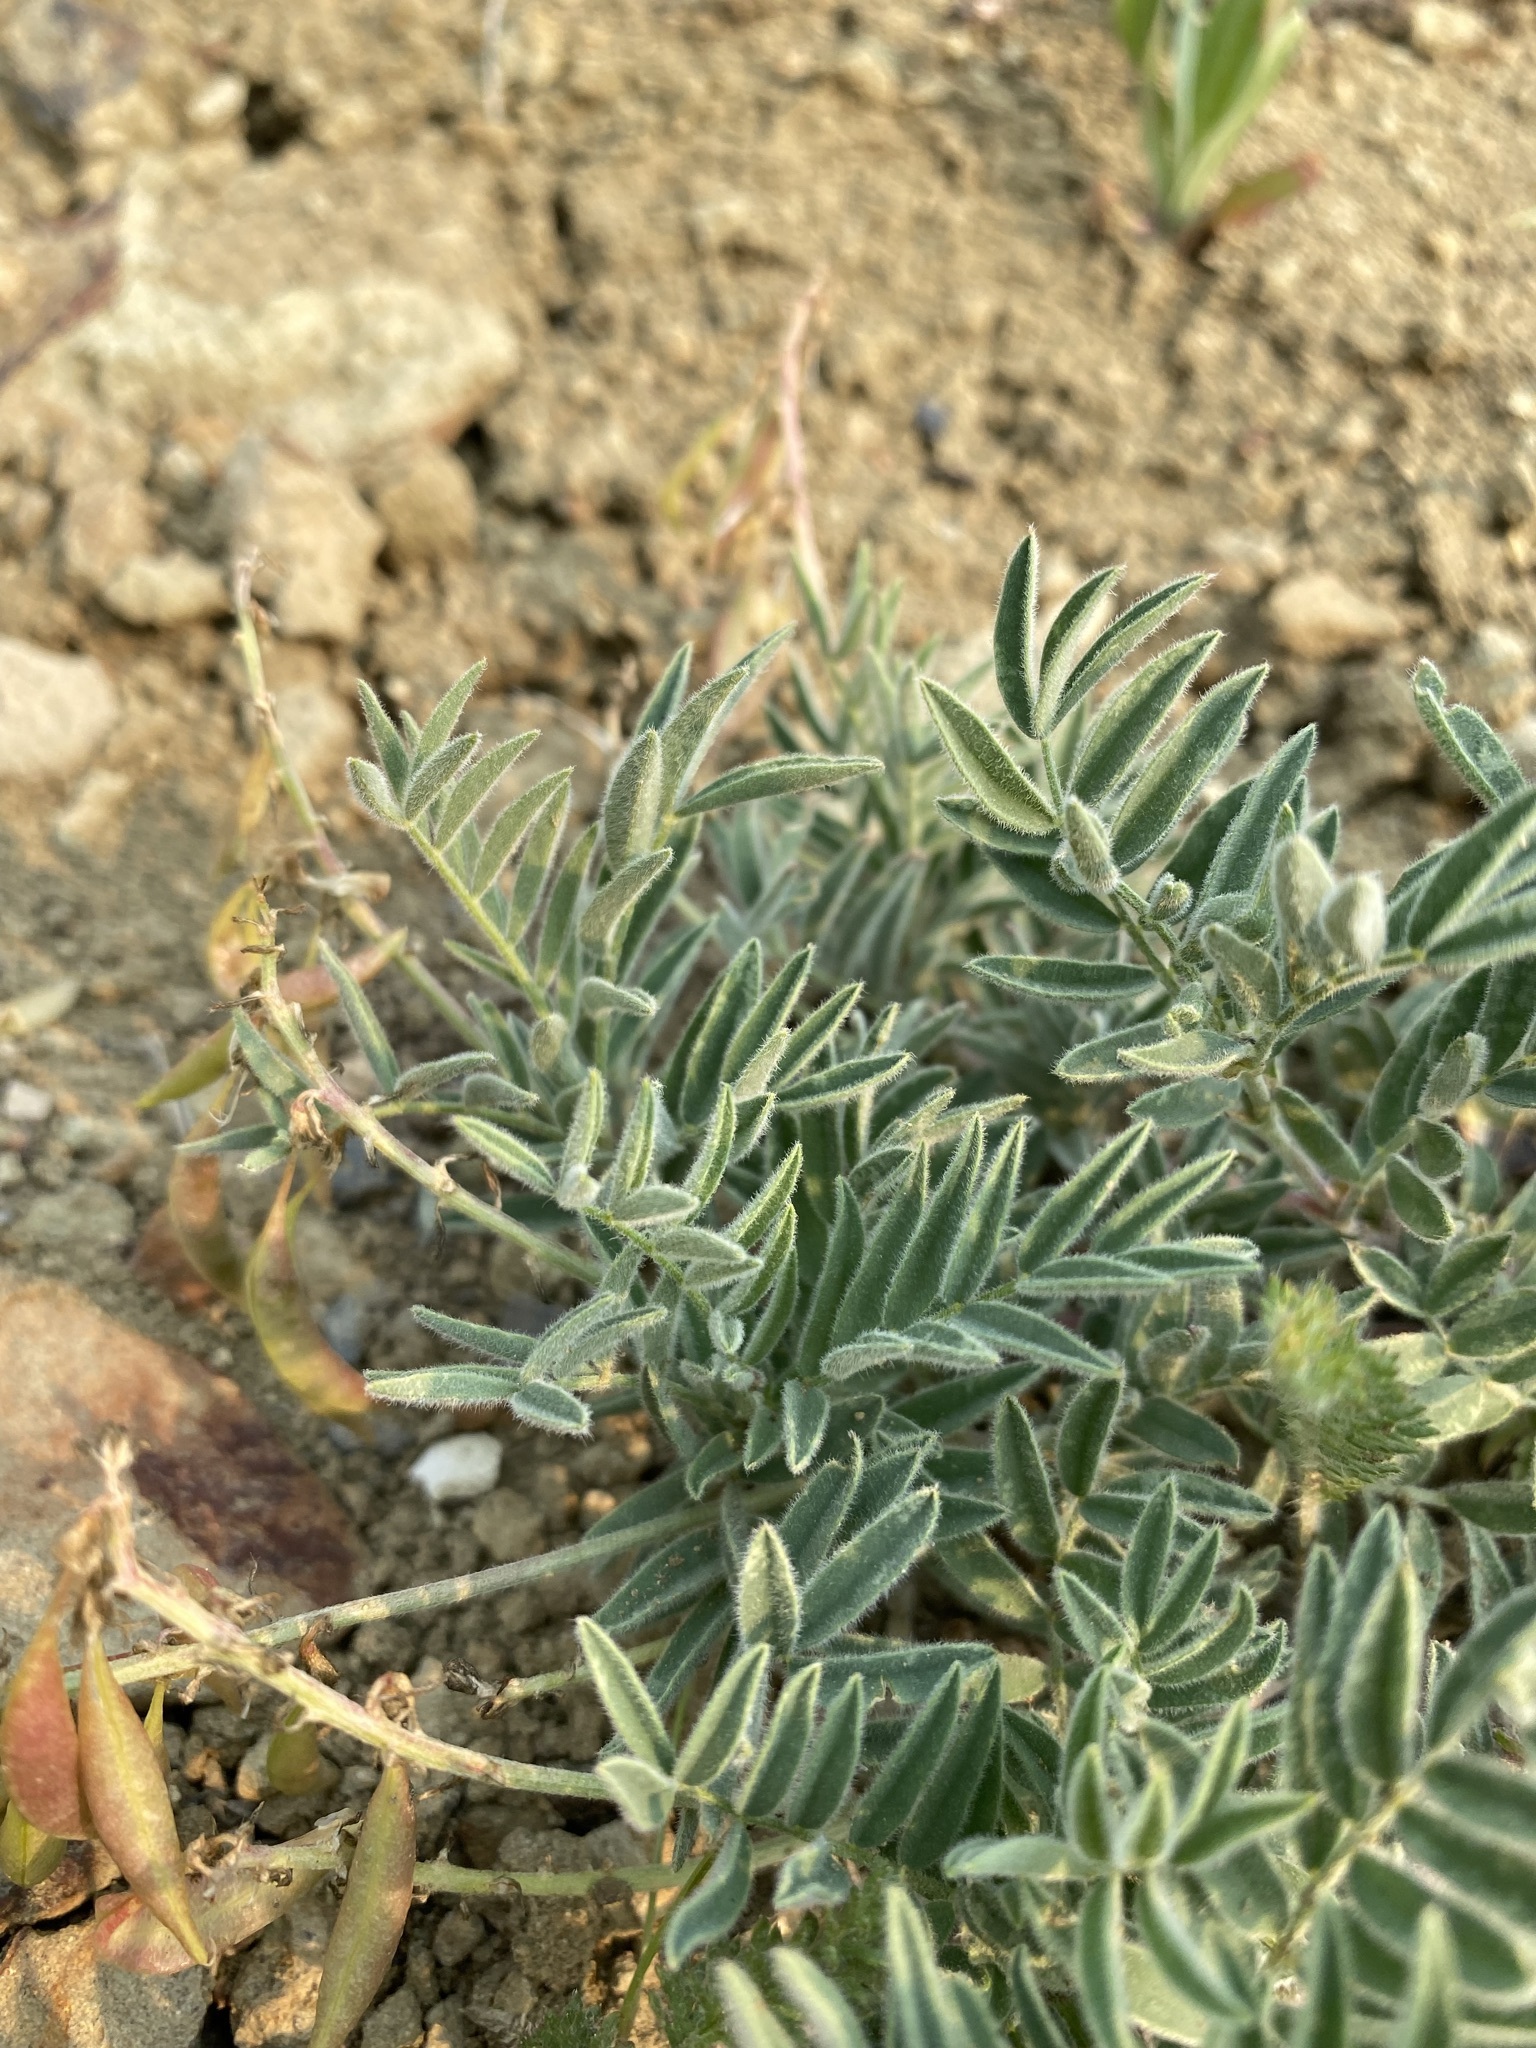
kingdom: Plantae
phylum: Tracheophyta
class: Magnoliopsida
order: Fabales
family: Fabaceae
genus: Astragalus
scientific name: Astragalus australis
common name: Indian milk-vetch
